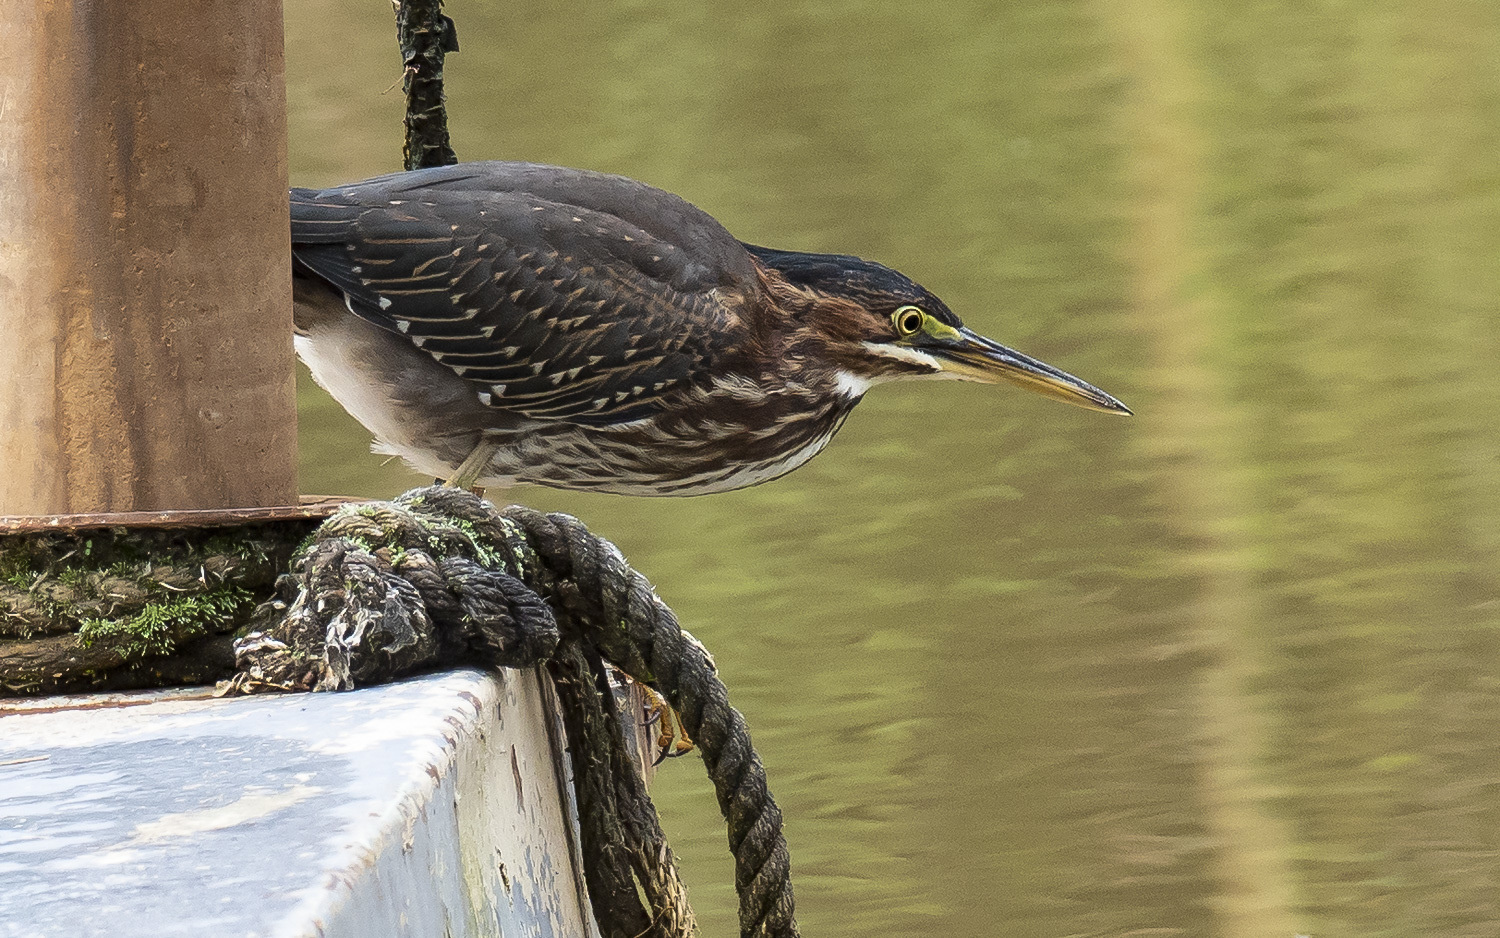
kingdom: Animalia
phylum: Chordata
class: Aves
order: Pelecaniformes
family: Ardeidae
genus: Butorides
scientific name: Butorides virescens
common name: Green heron
